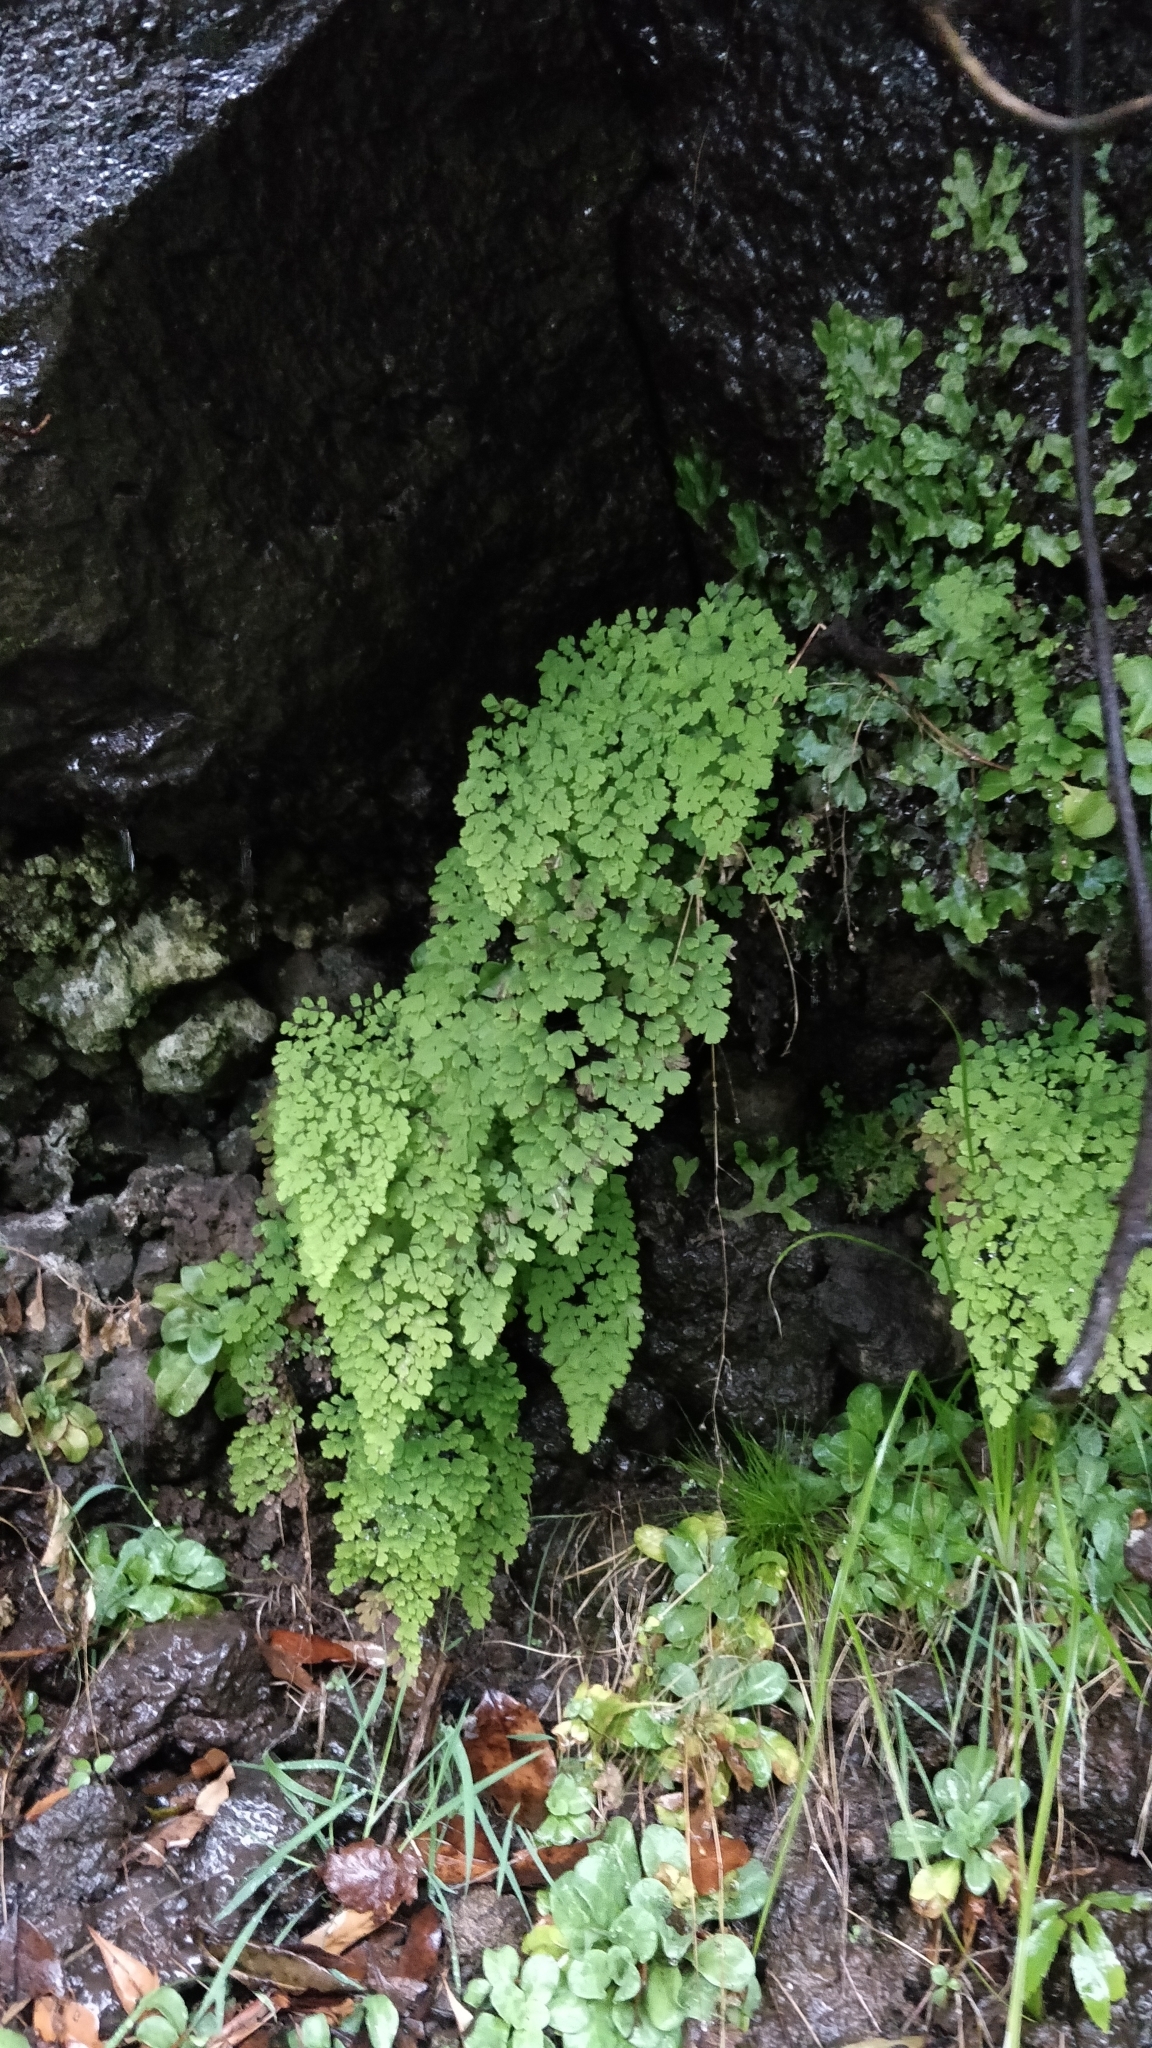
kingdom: Plantae
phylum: Tracheophyta
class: Polypodiopsida
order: Polypodiales
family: Pteridaceae
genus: Adiantum
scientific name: Adiantum raddianum
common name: Delta maidenhair fern
